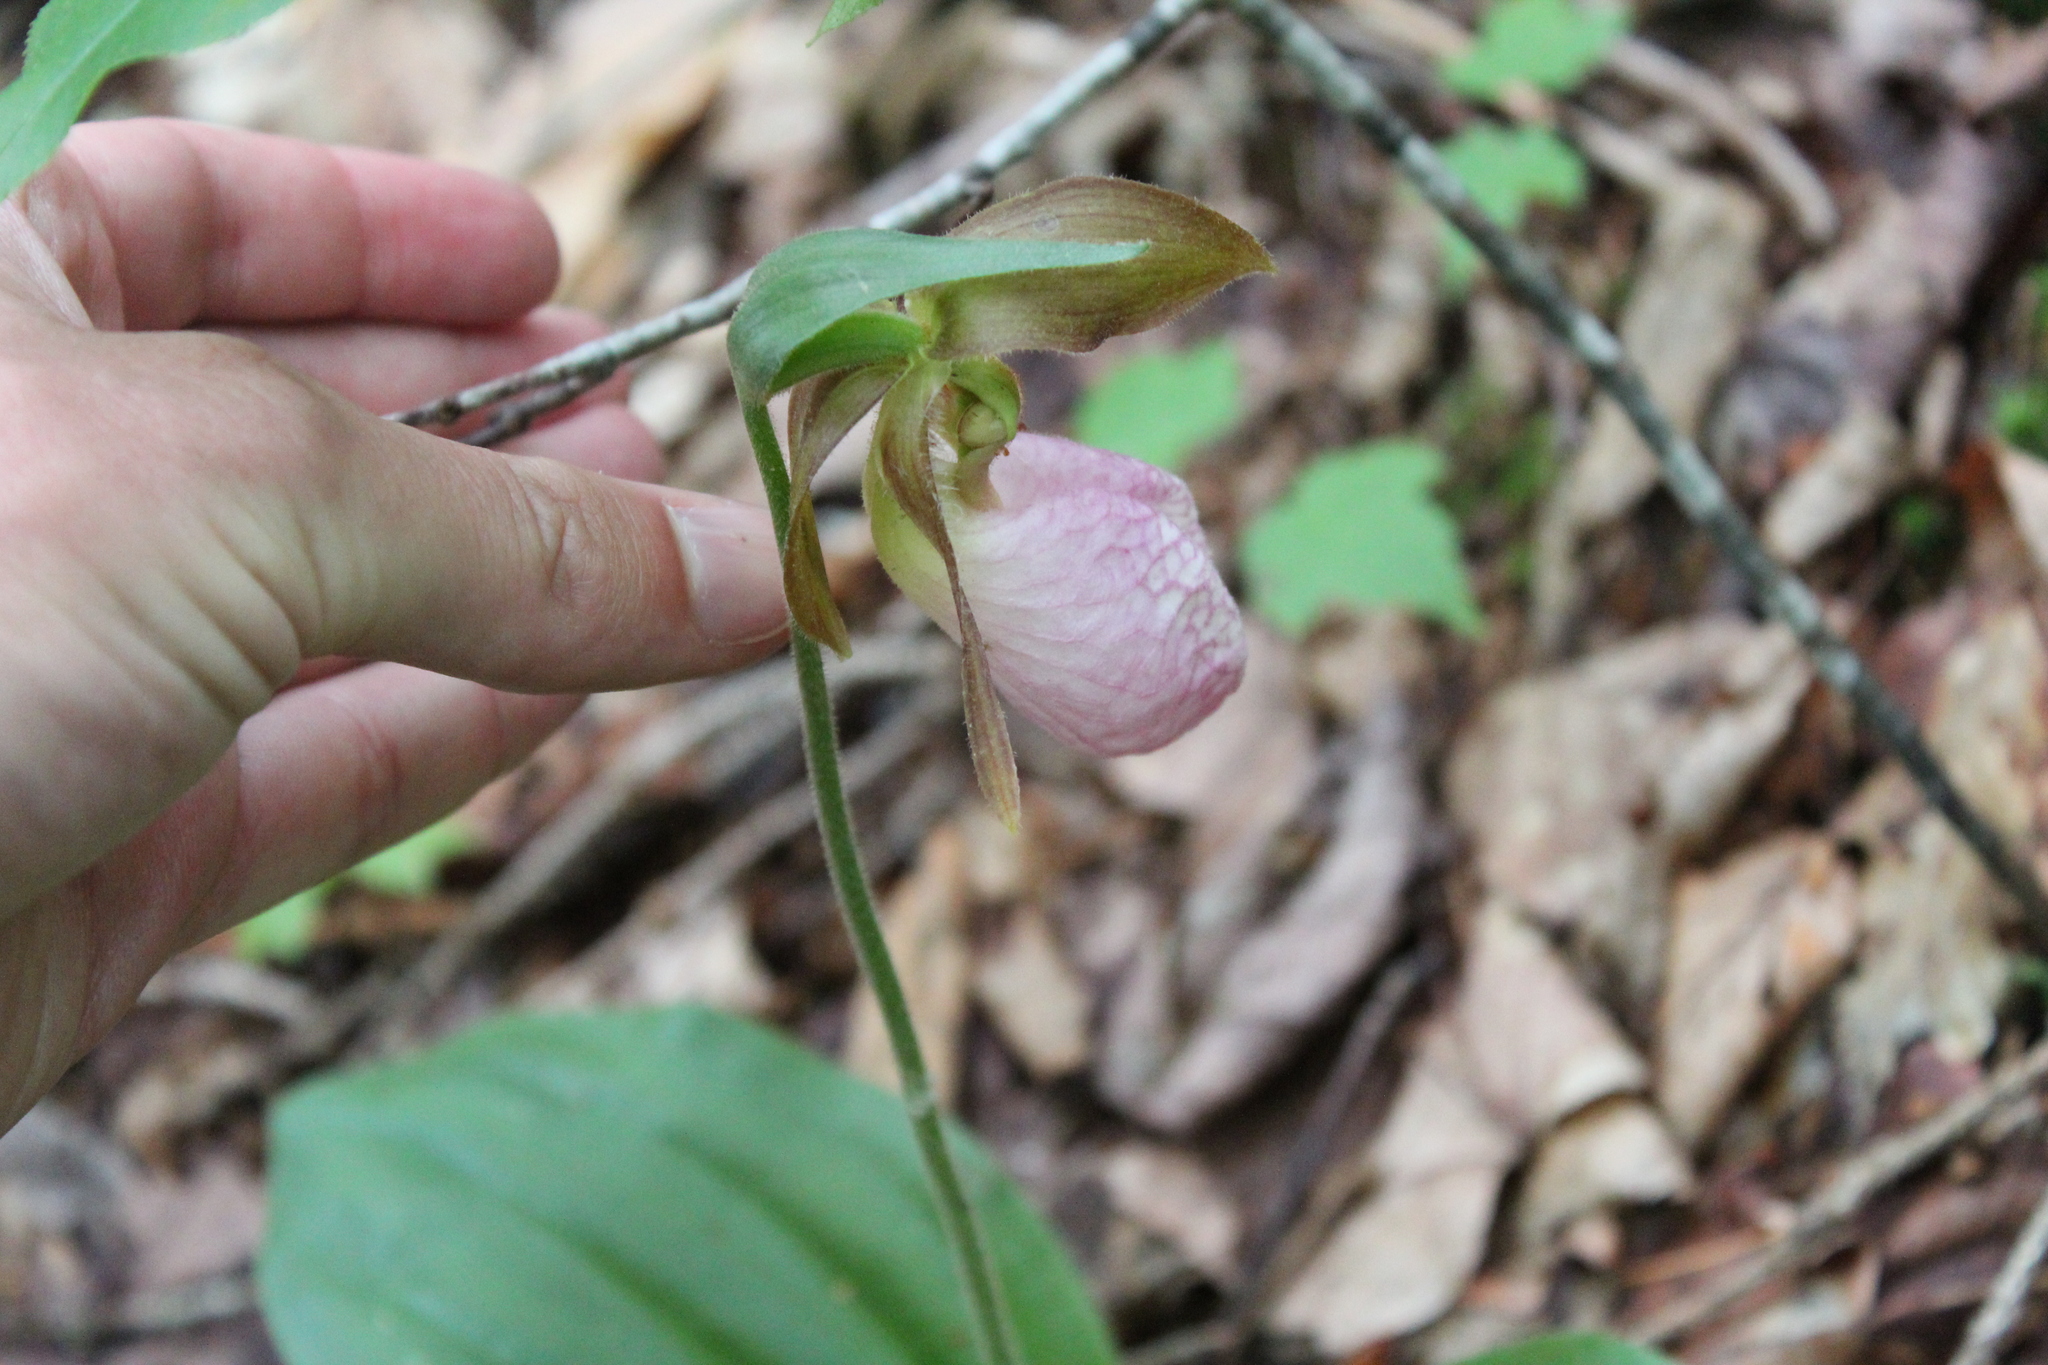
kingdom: Plantae
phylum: Tracheophyta
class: Liliopsida
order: Asparagales
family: Orchidaceae
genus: Cypripedium
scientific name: Cypripedium acaule
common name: Pink lady's-slipper
